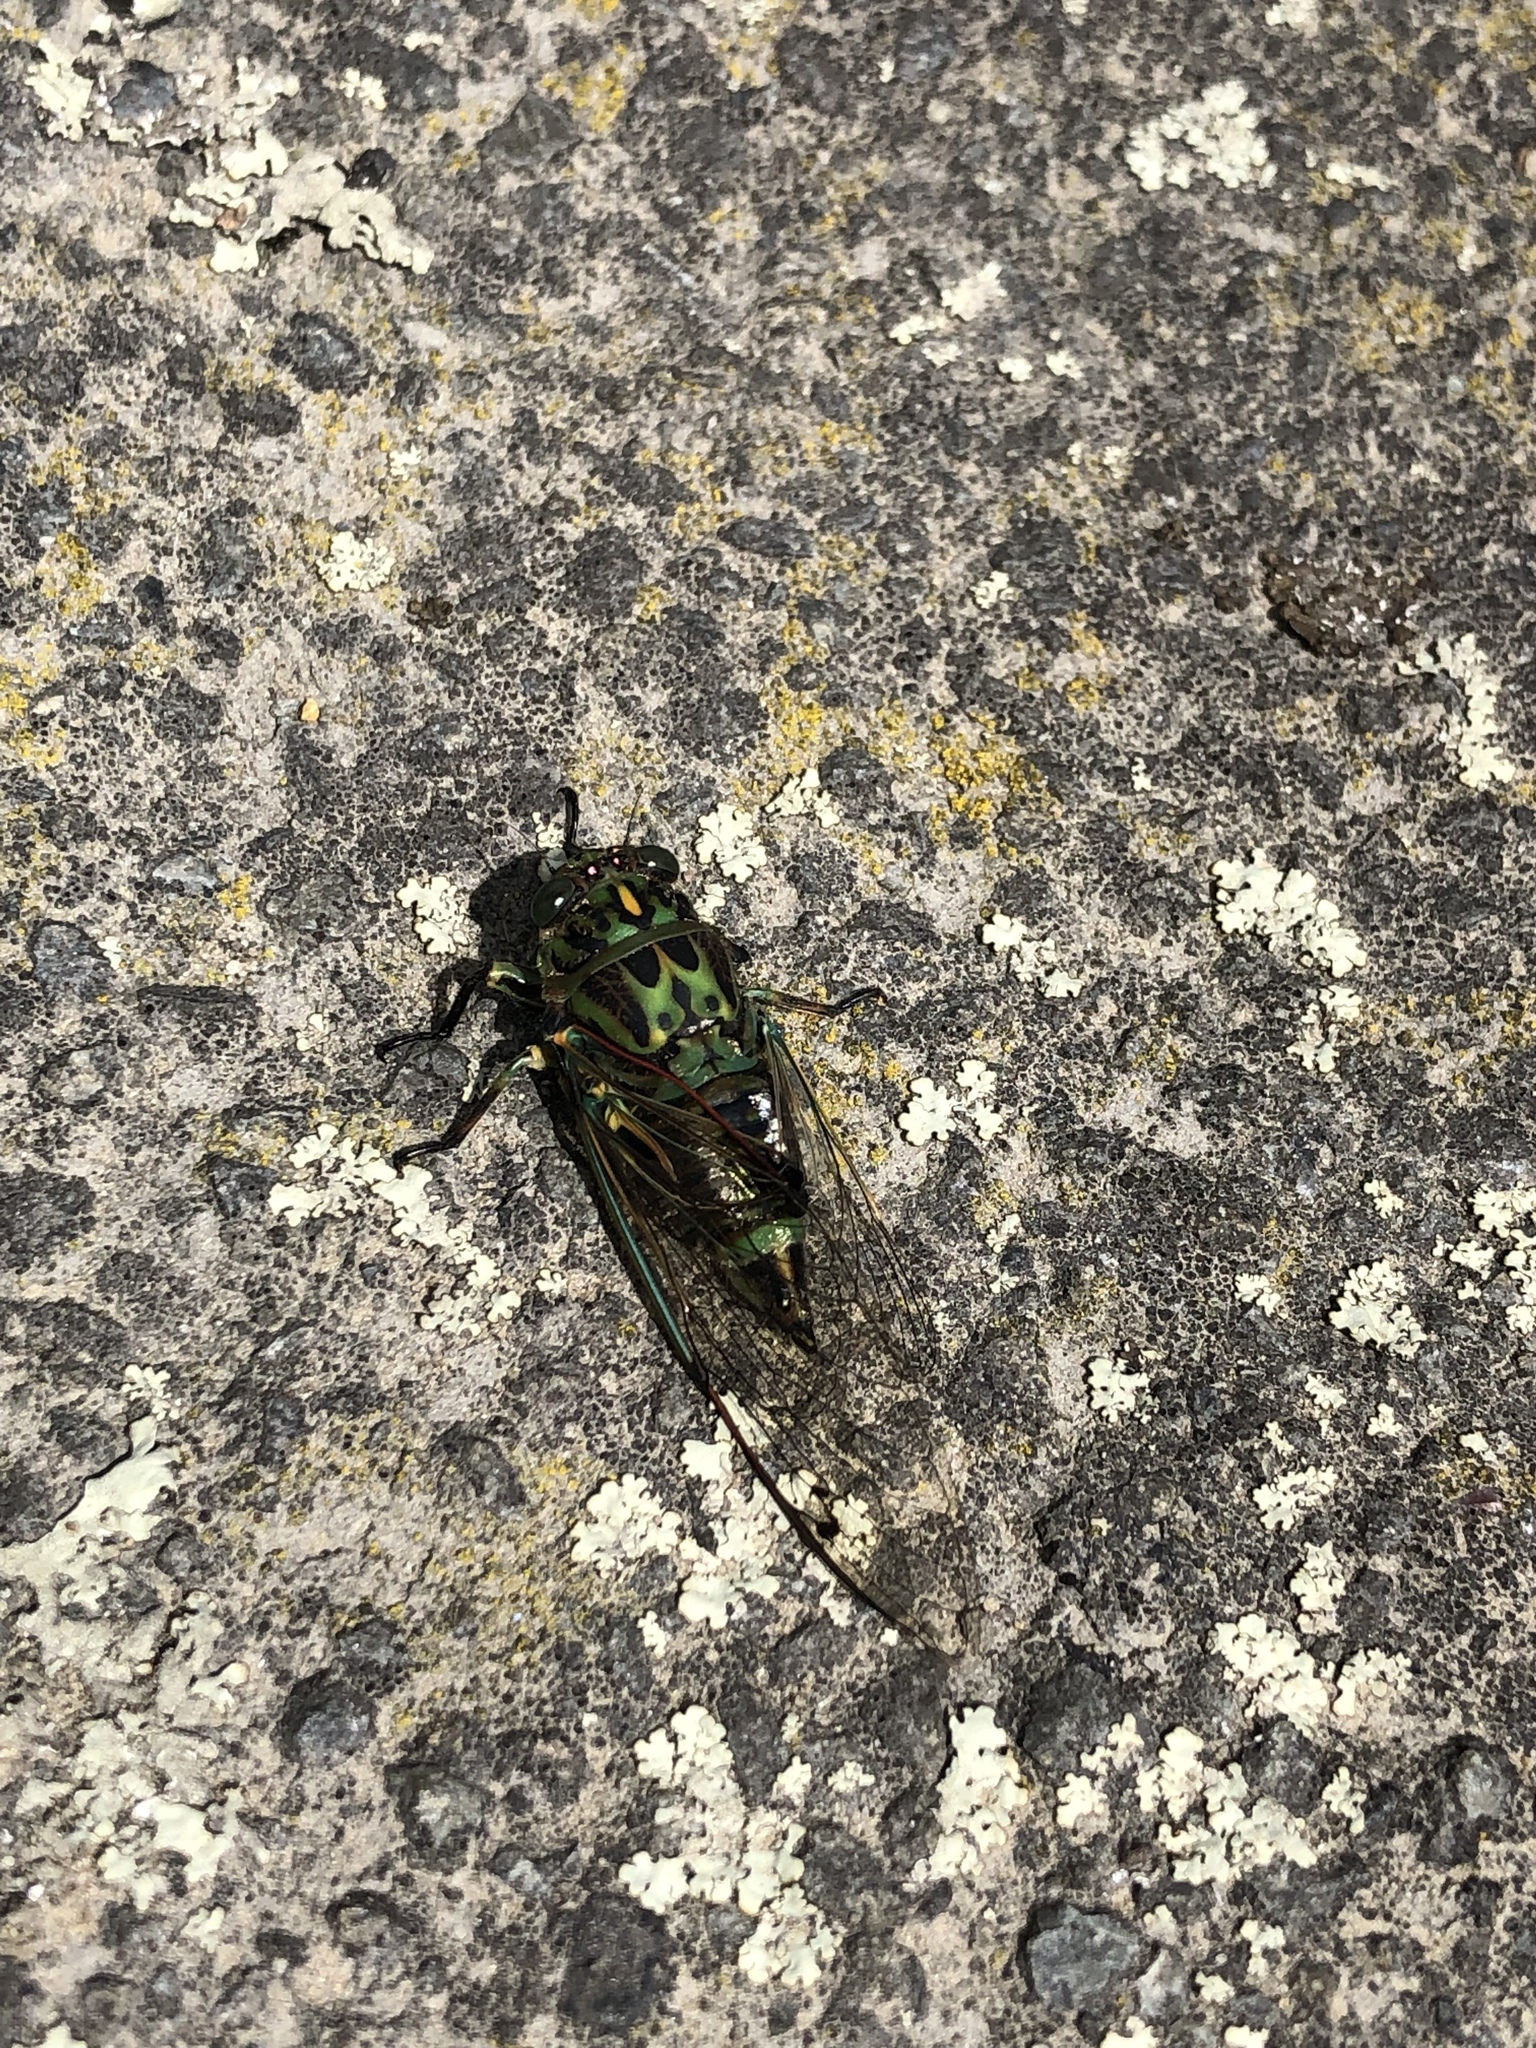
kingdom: Animalia
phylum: Arthropoda
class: Insecta
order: Hemiptera
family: Cicadidae
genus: Amphipsalta
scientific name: Amphipsalta zelandica
